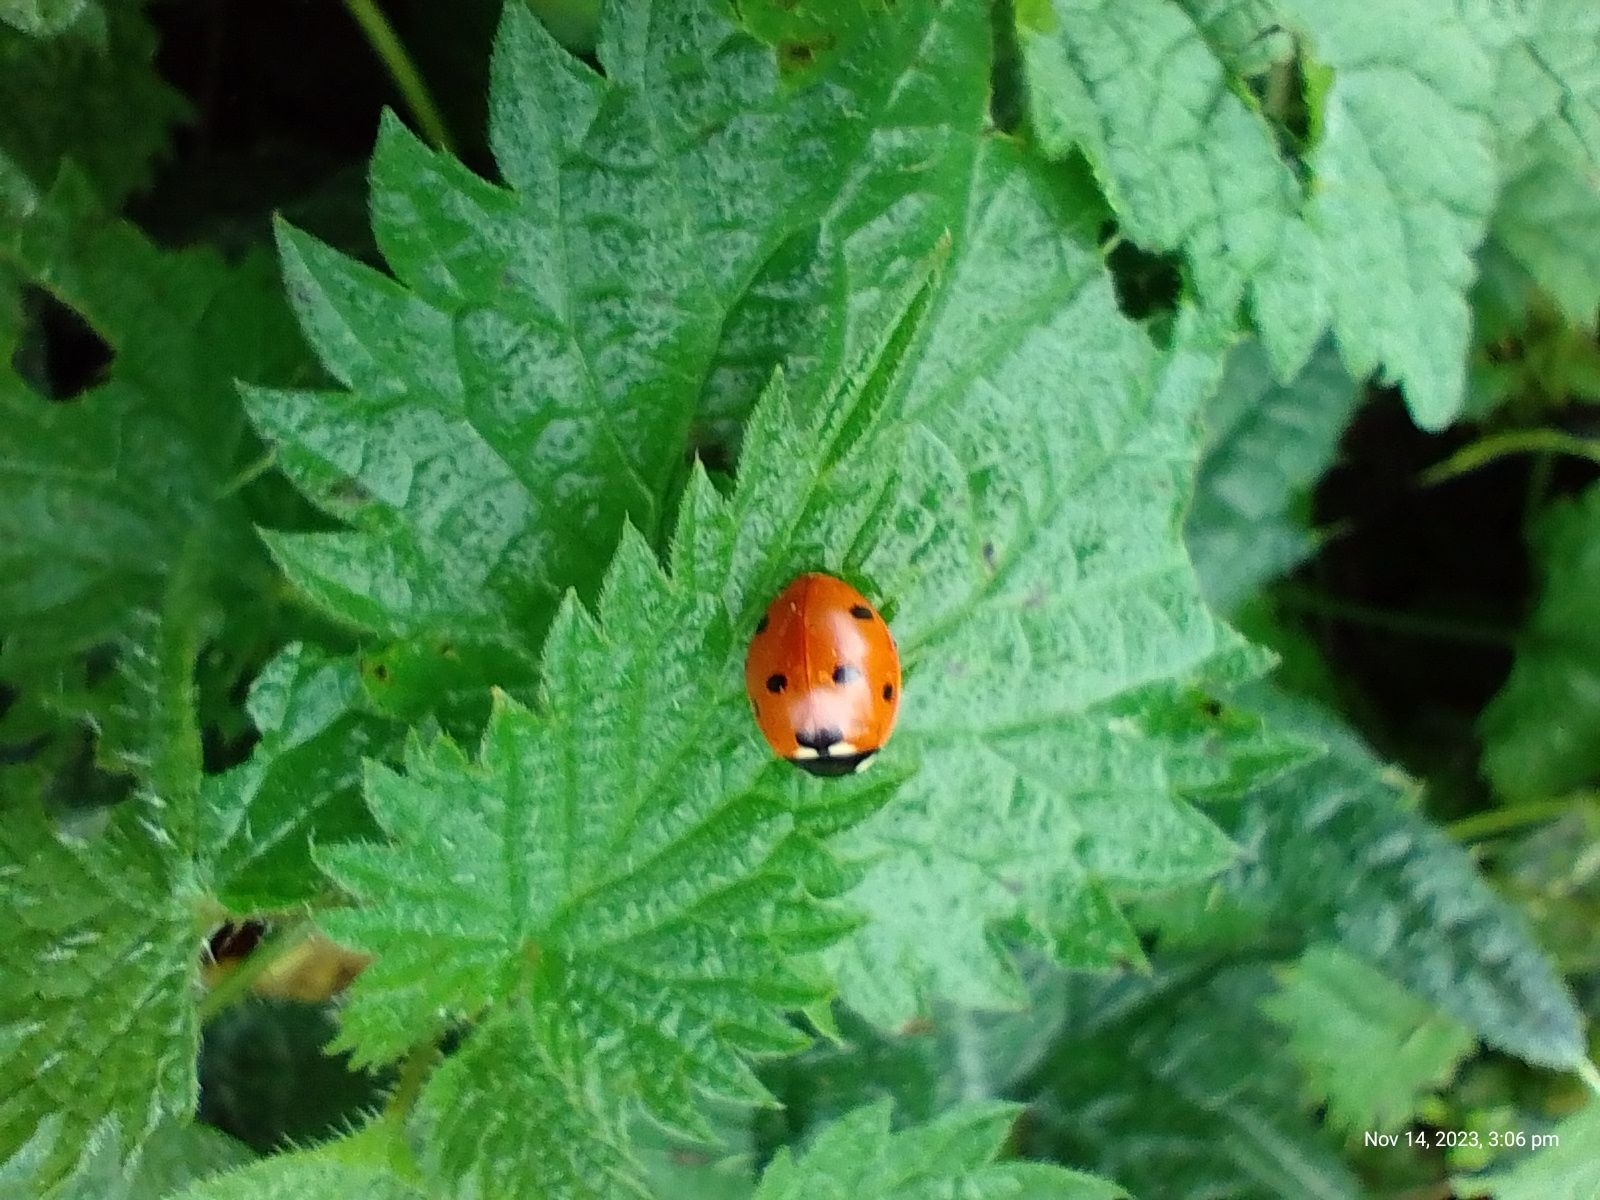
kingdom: Animalia
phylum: Arthropoda
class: Insecta
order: Coleoptera
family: Coccinellidae
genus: Coccinella
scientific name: Coccinella septempunctata
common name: Sevenspotted lady beetle
